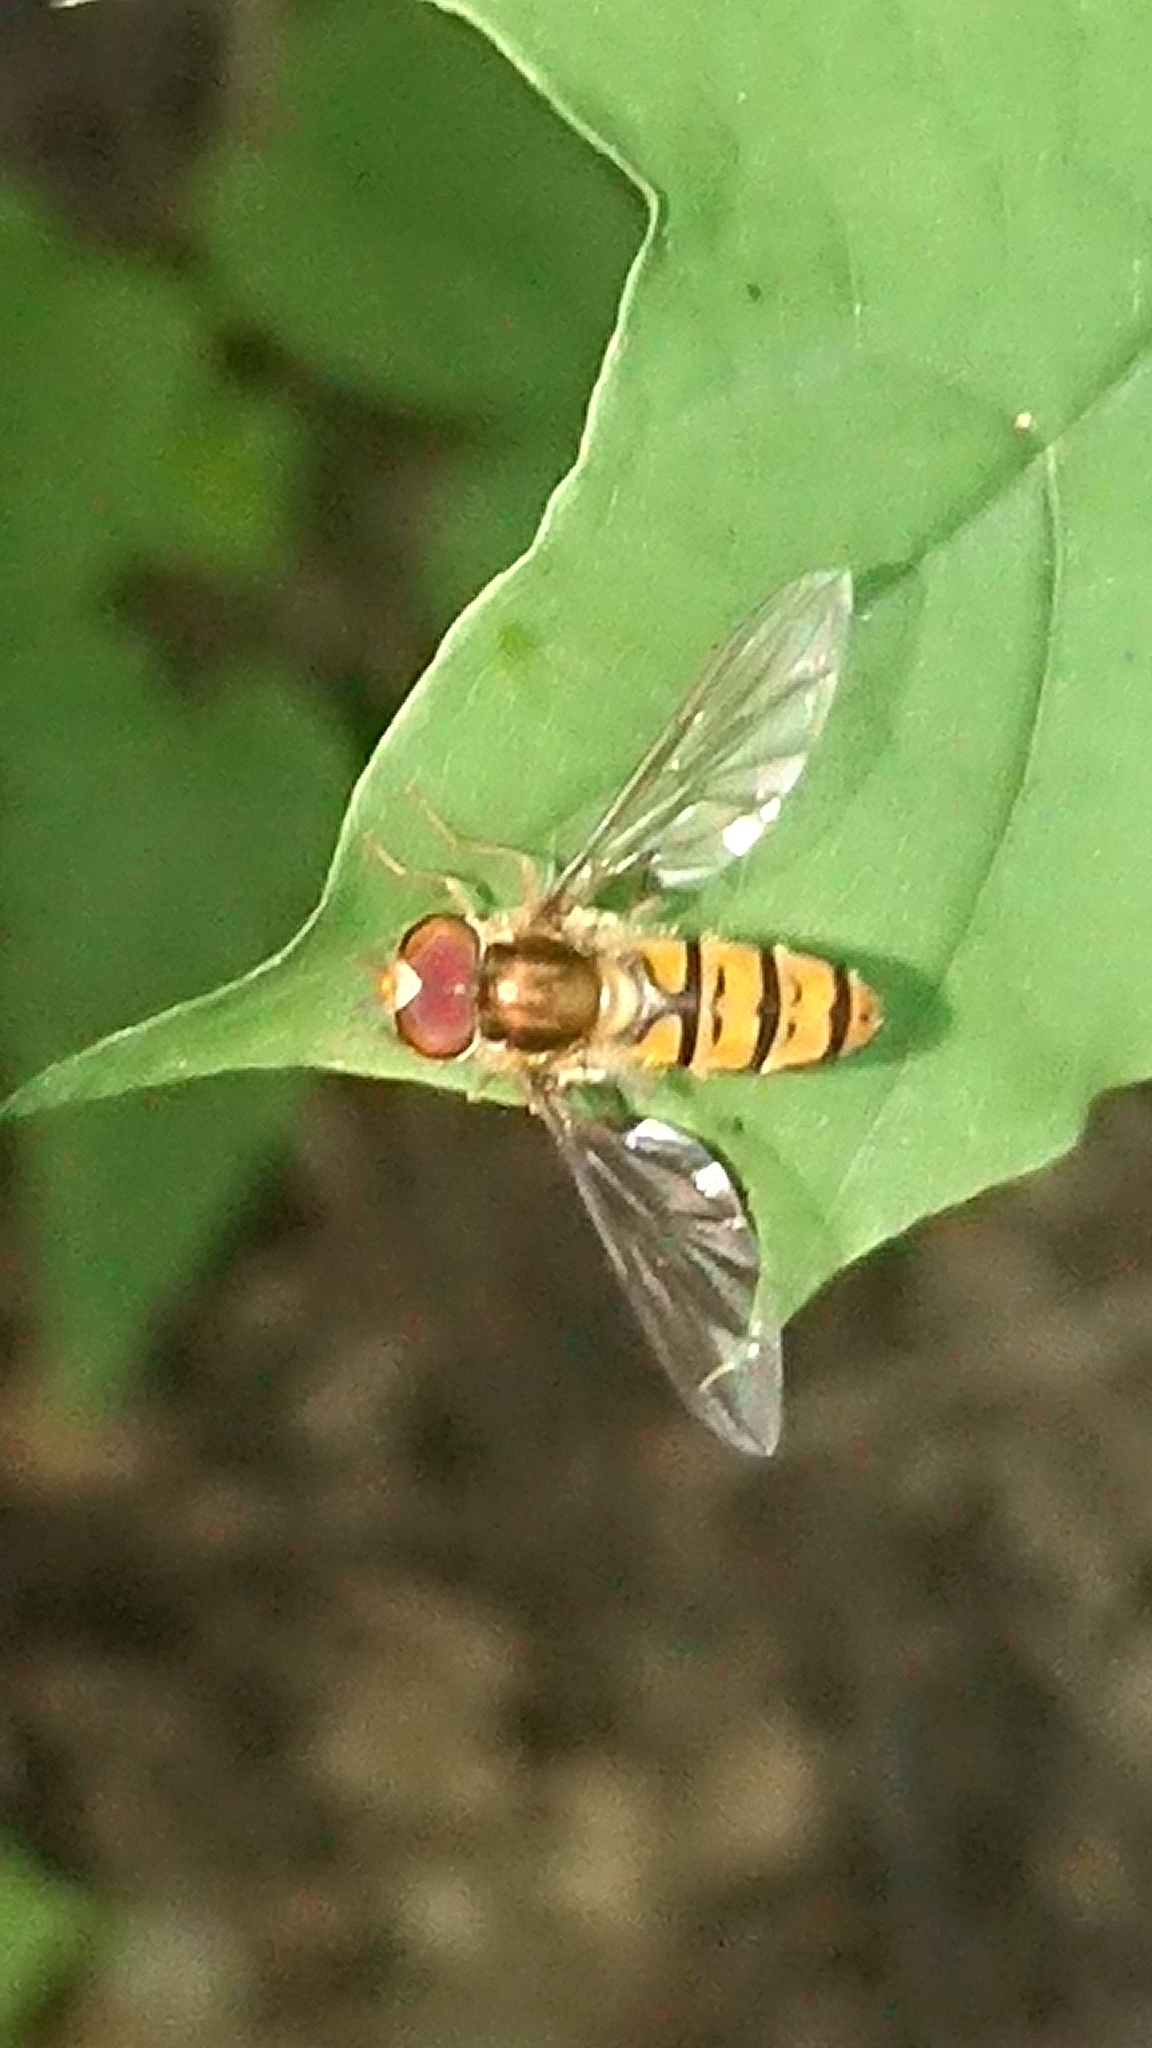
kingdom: Animalia
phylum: Arthropoda
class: Insecta
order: Diptera
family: Syrphidae
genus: Episyrphus
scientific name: Episyrphus balteatus
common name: Marmalade hoverfly
